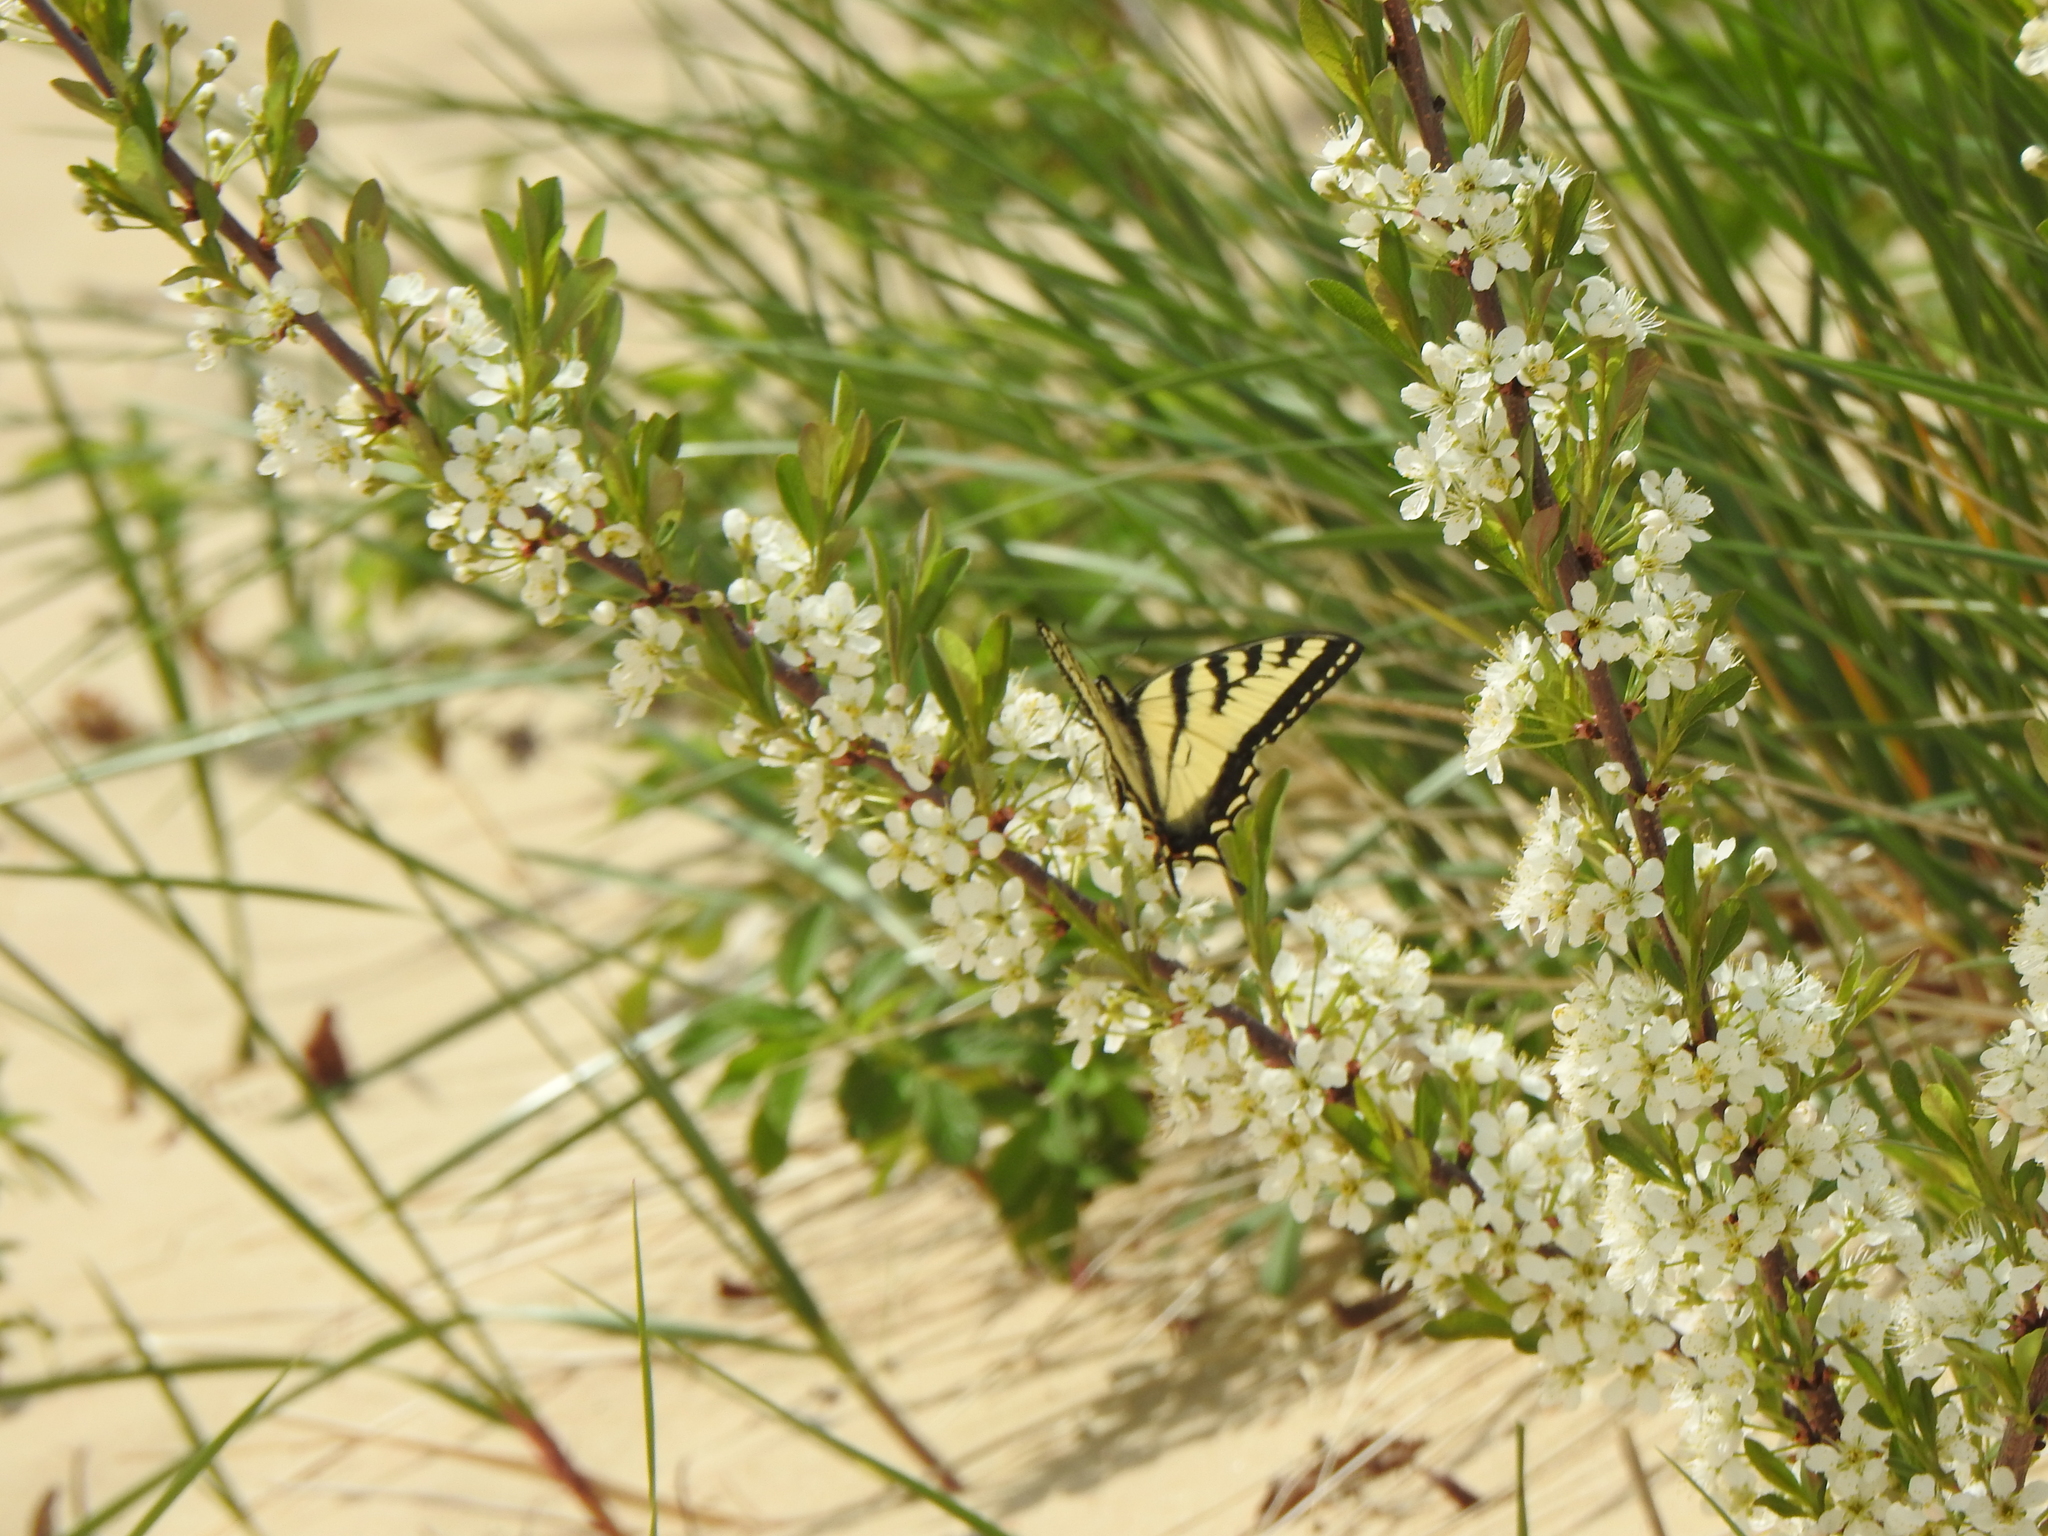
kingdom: Animalia
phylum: Arthropoda
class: Insecta
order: Lepidoptera
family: Papilionidae
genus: Papilio
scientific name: Papilio canadensis
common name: Canadian tiger swallowtail
